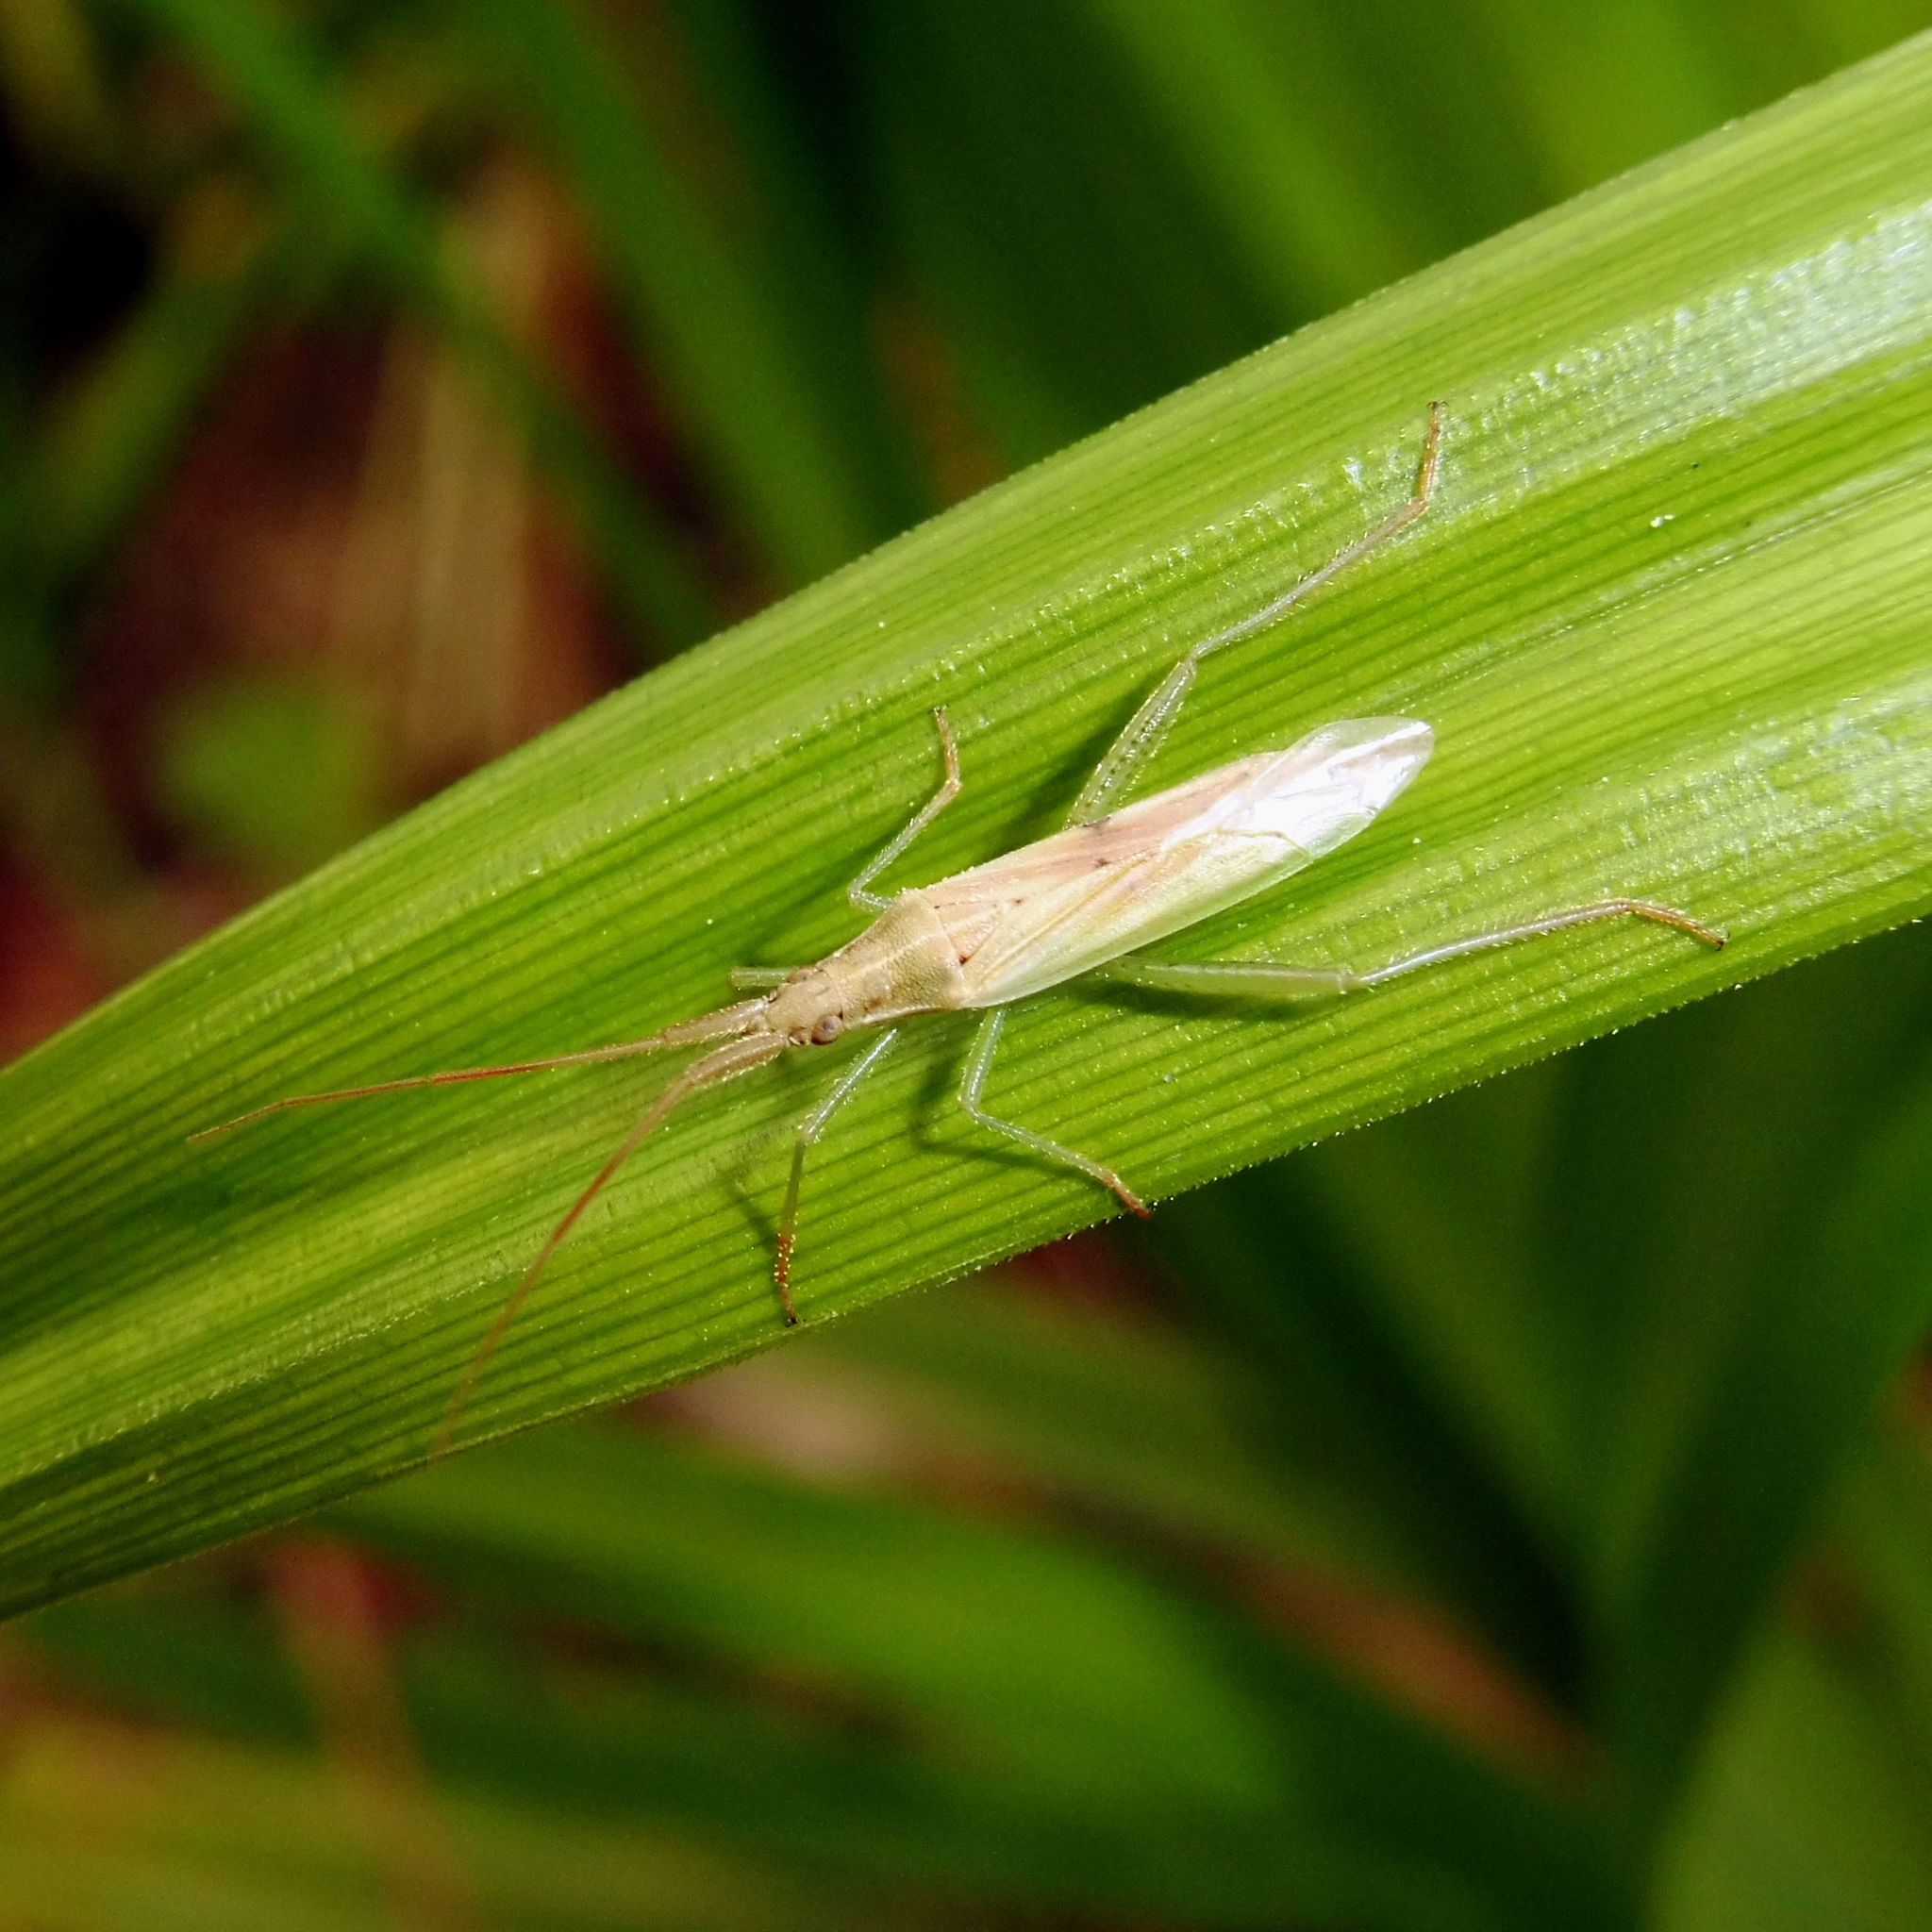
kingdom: Animalia
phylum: Arthropoda
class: Insecta
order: Hemiptera
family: Miridae
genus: Stenodema
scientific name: Stenodema laevigata
